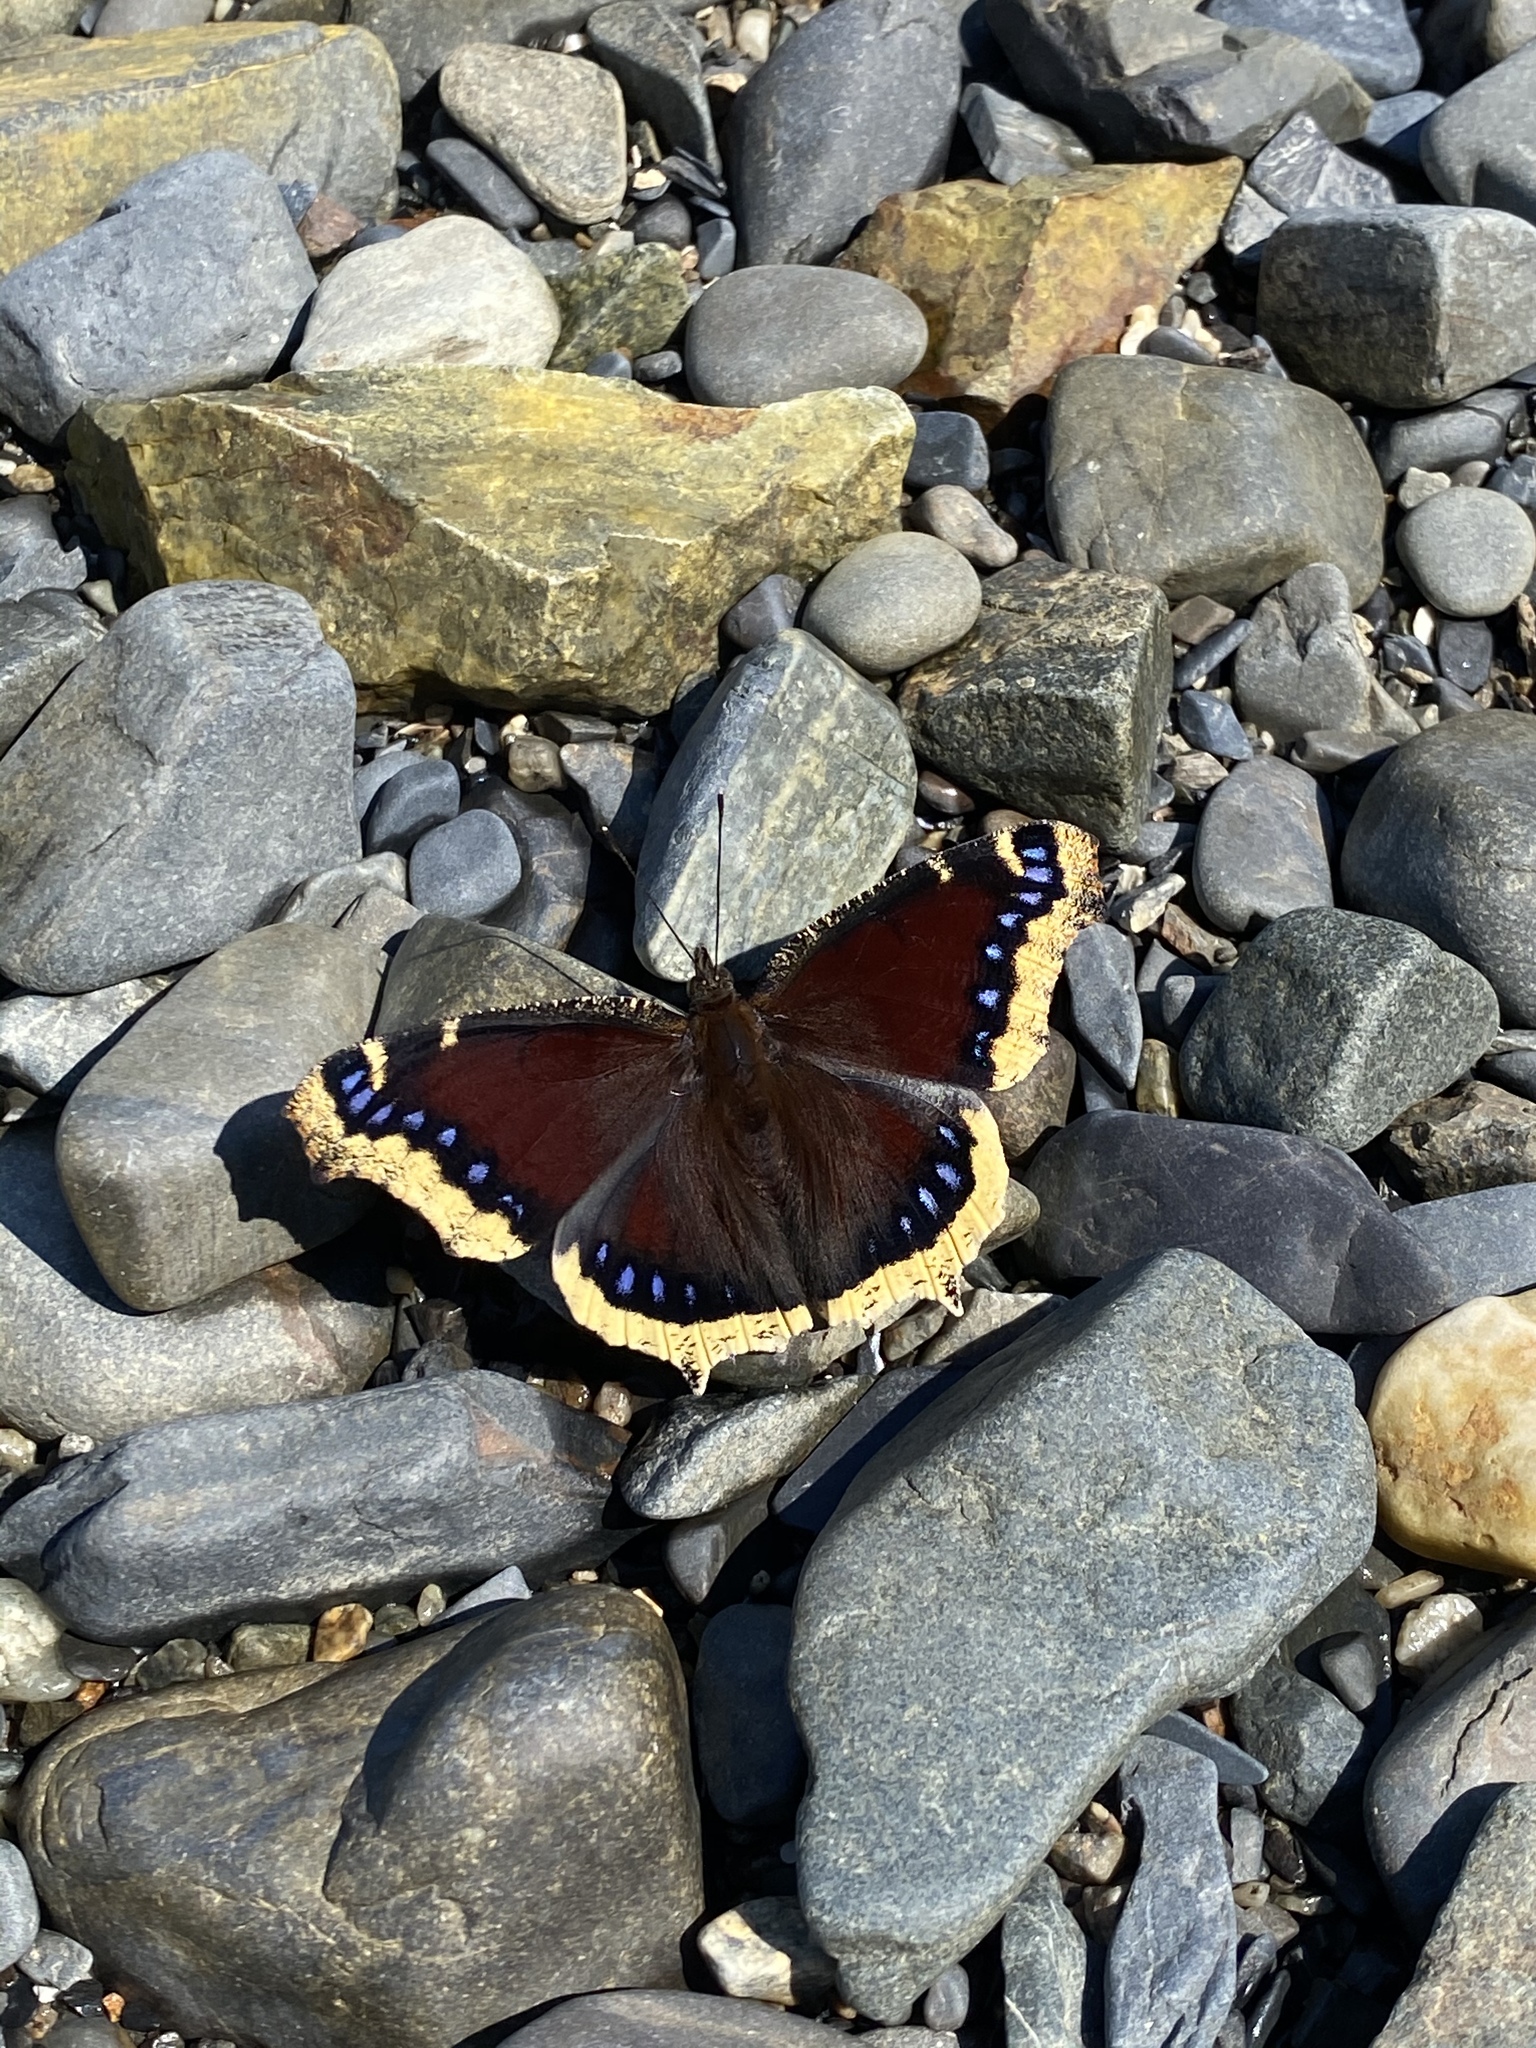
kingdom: Animalia
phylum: Arthropoda
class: Insecta
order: Lepidoptera
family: Nymphalidae
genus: Nymphalis
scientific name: Nymphalis antiopa
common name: Camberwell beauty
